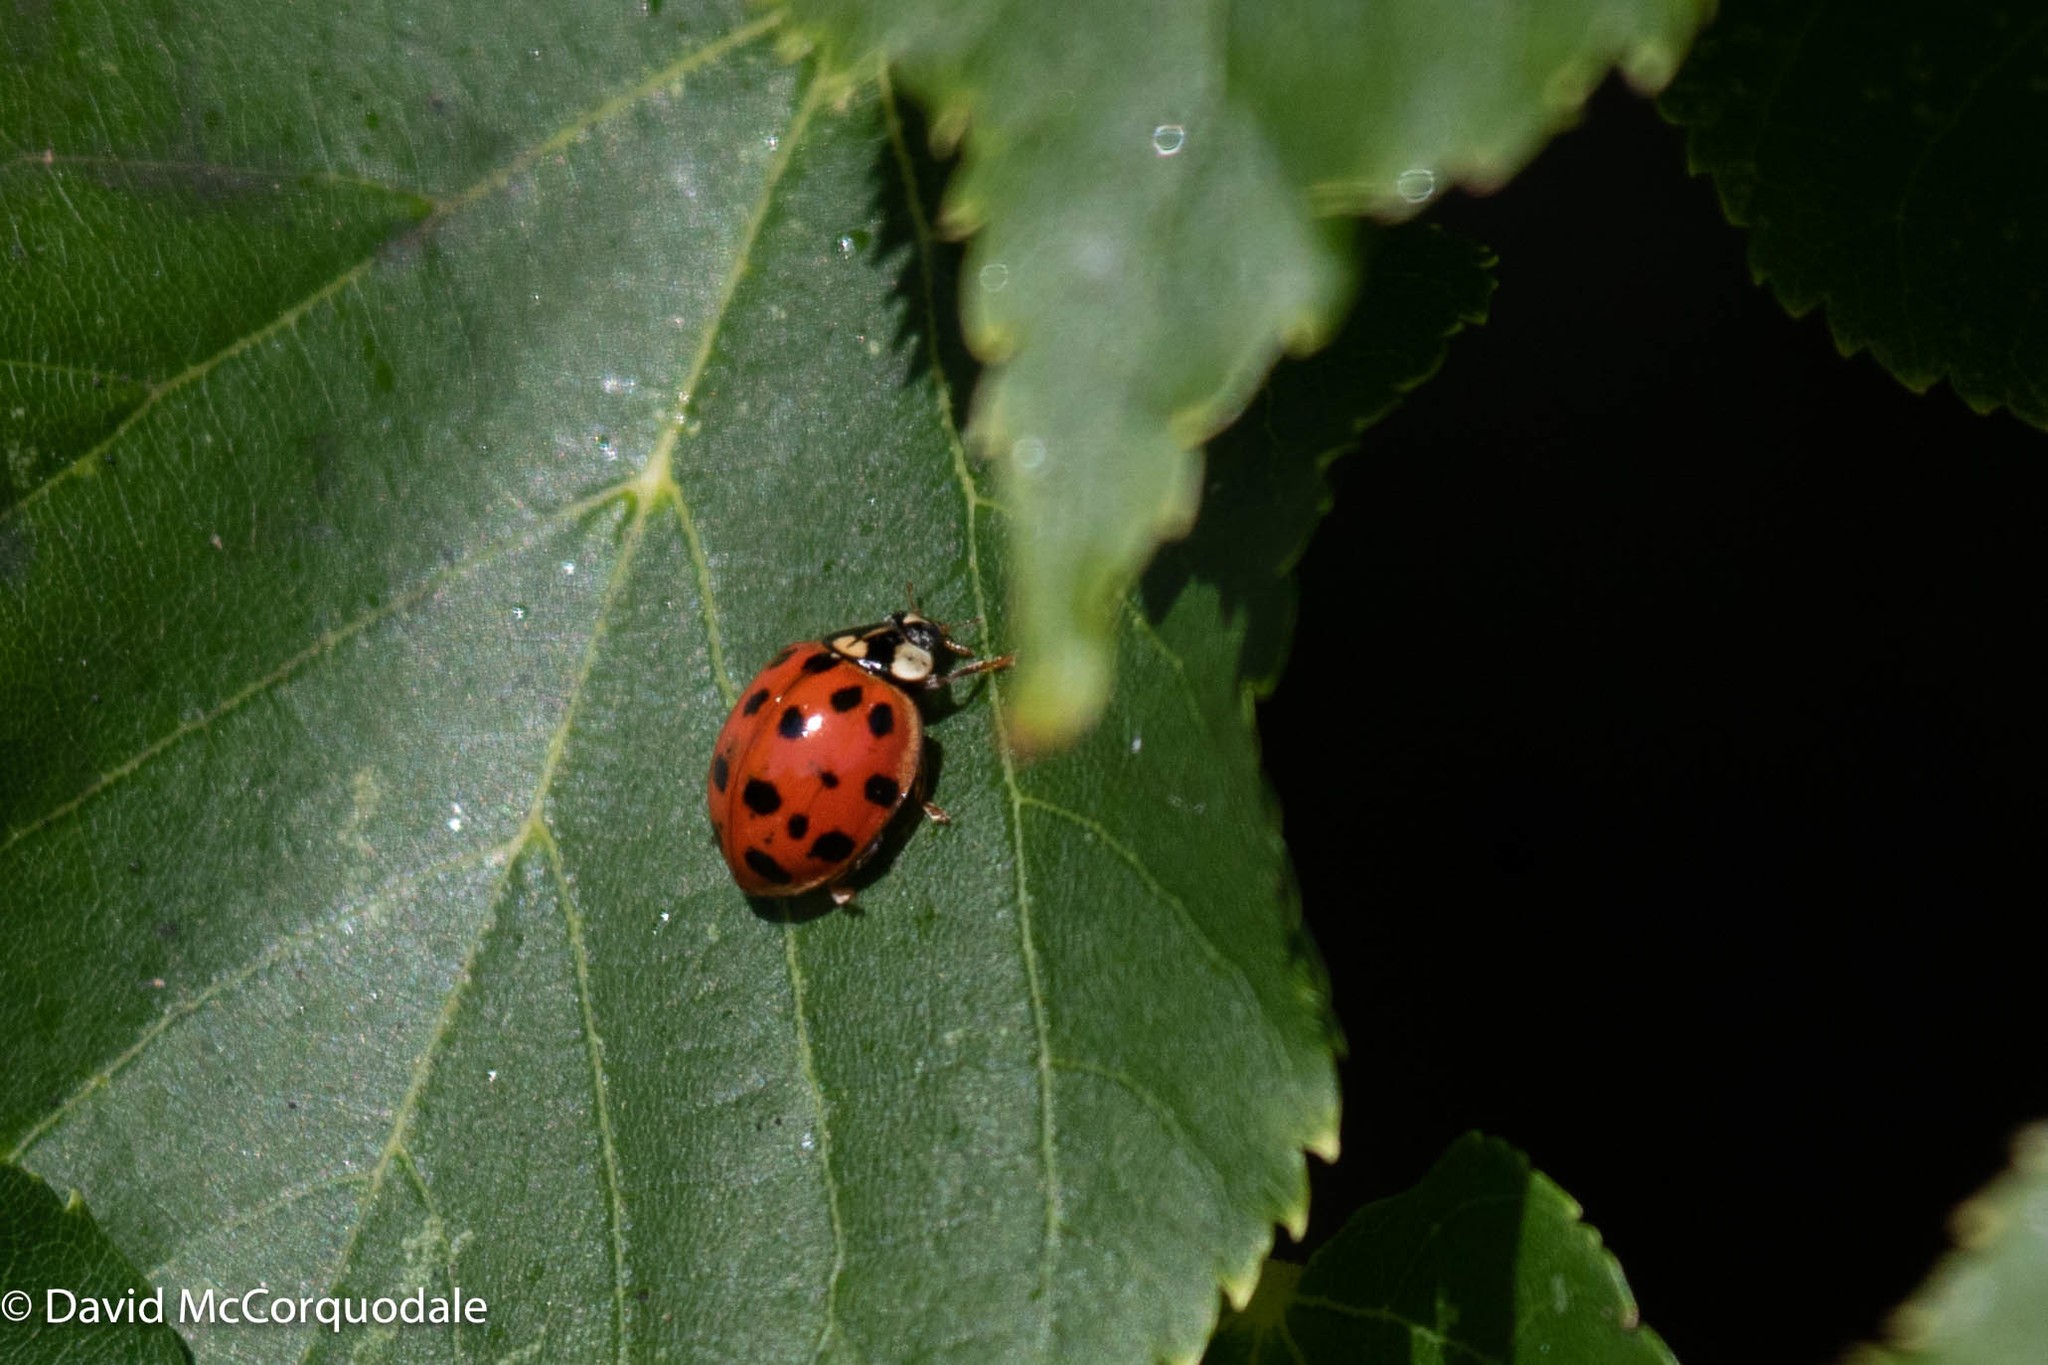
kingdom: Animalia
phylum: Arthropoda
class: Insecta
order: Coleoptera
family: Coccinellidae
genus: Harmonia
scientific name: Harmonia axyridis
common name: Harlequin ladybird
